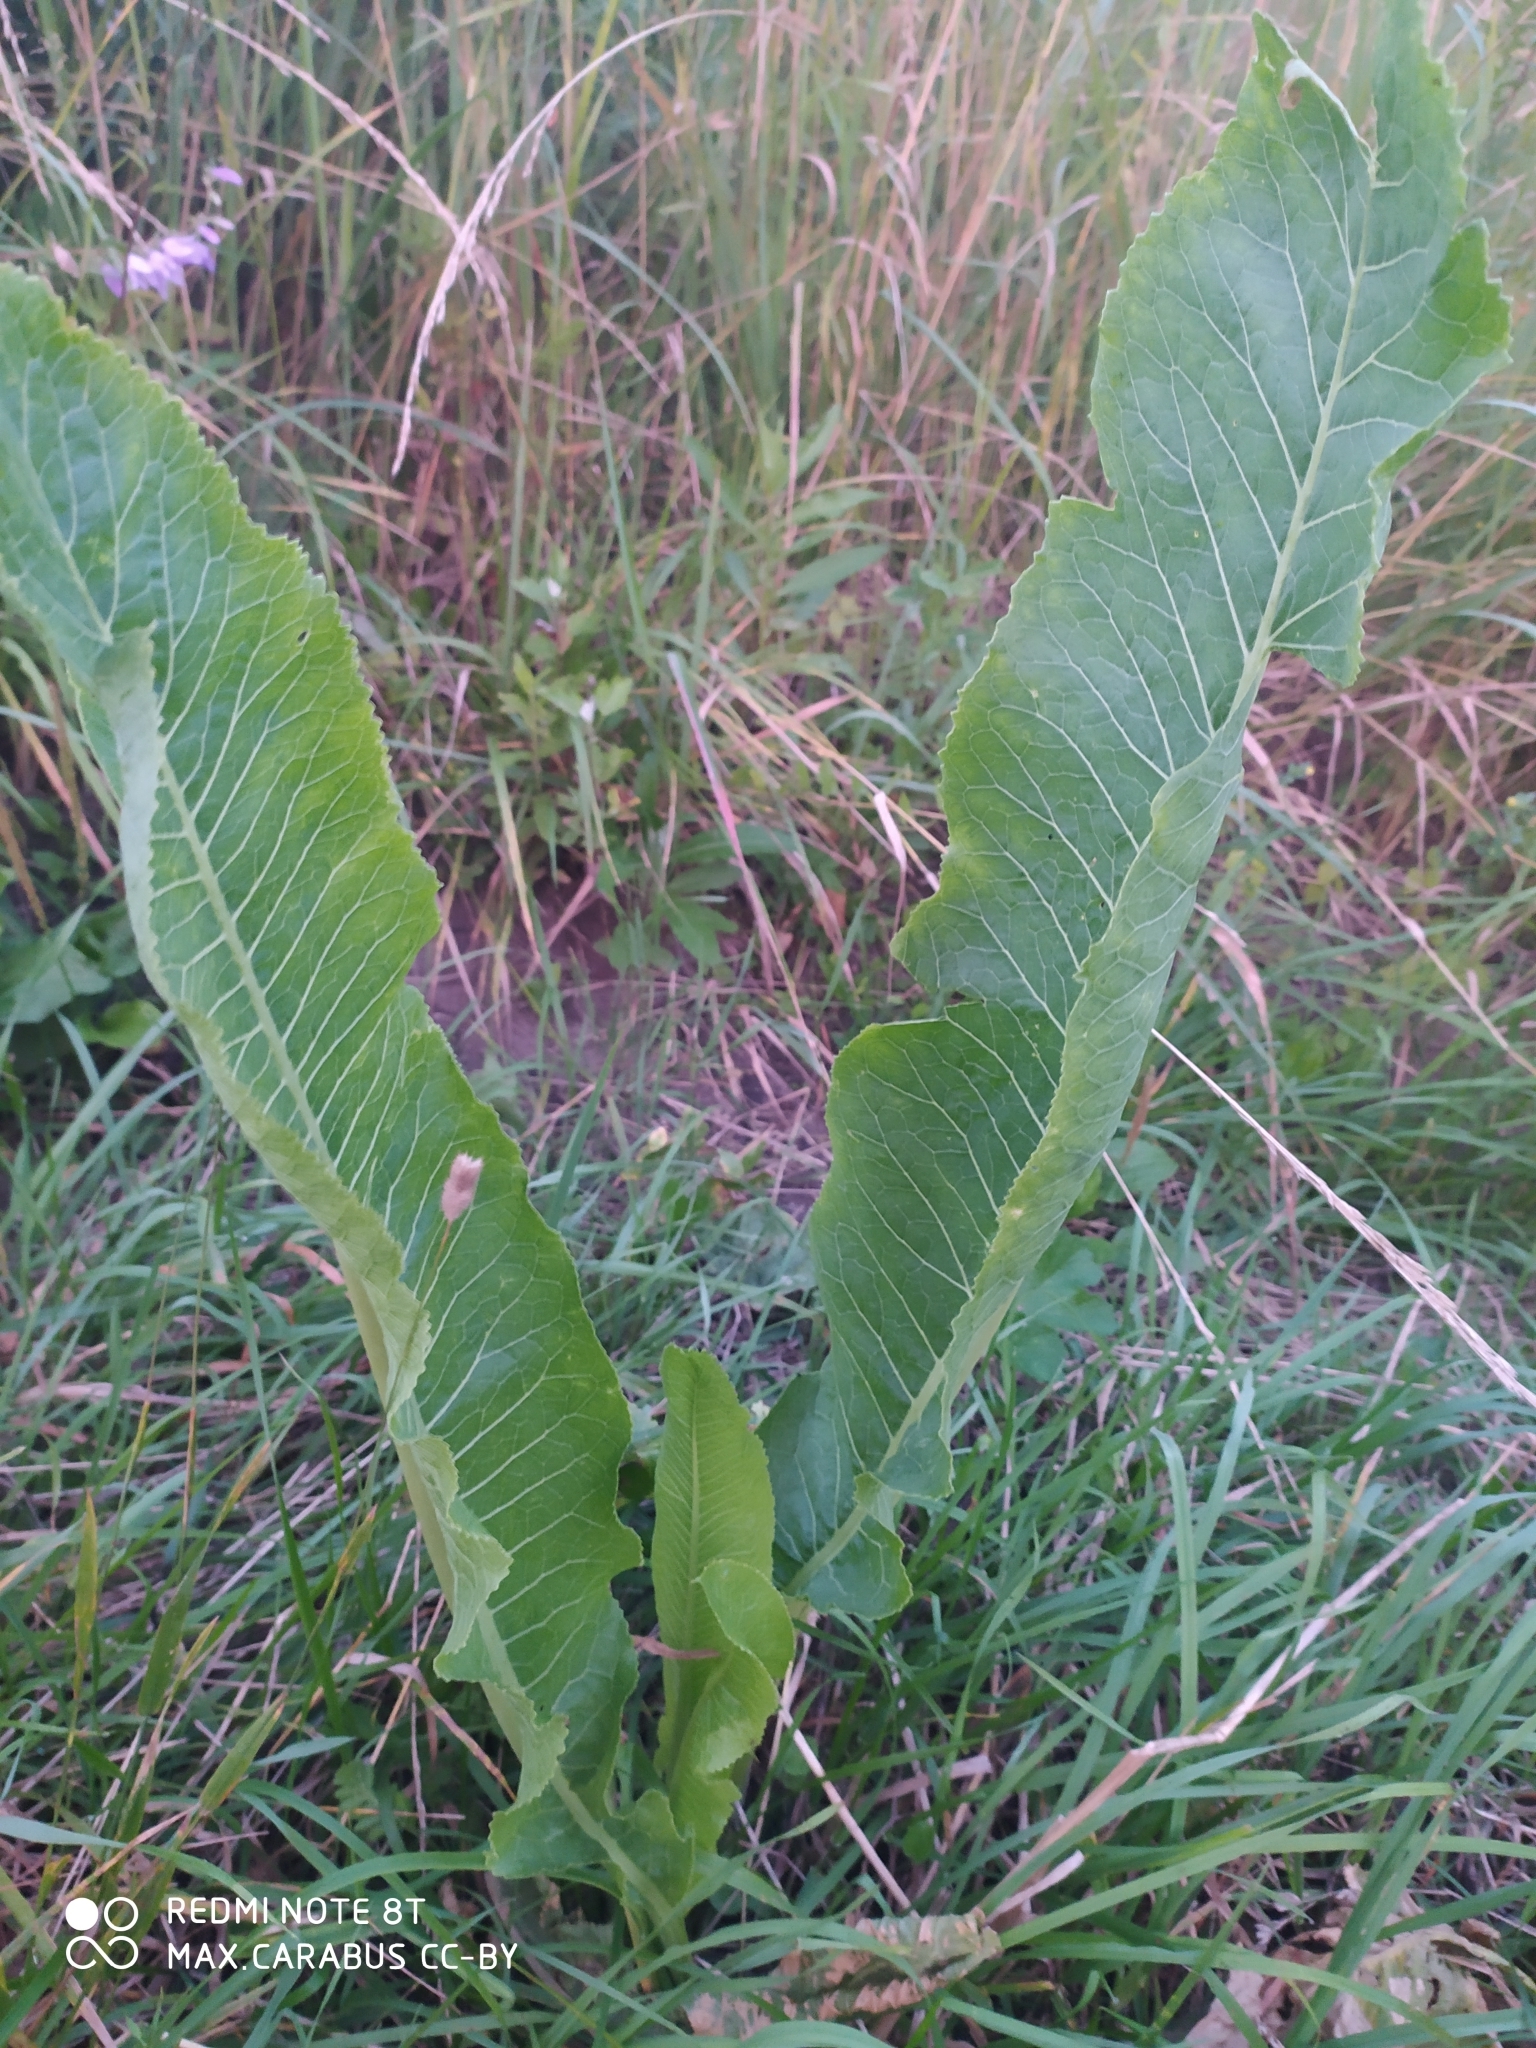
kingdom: Plantae
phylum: Tracheophyta
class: Magnoliopsida
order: Brassicales
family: Brassicaceae
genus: Armoracia
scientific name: Armoracia rusticana
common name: Horseradish
